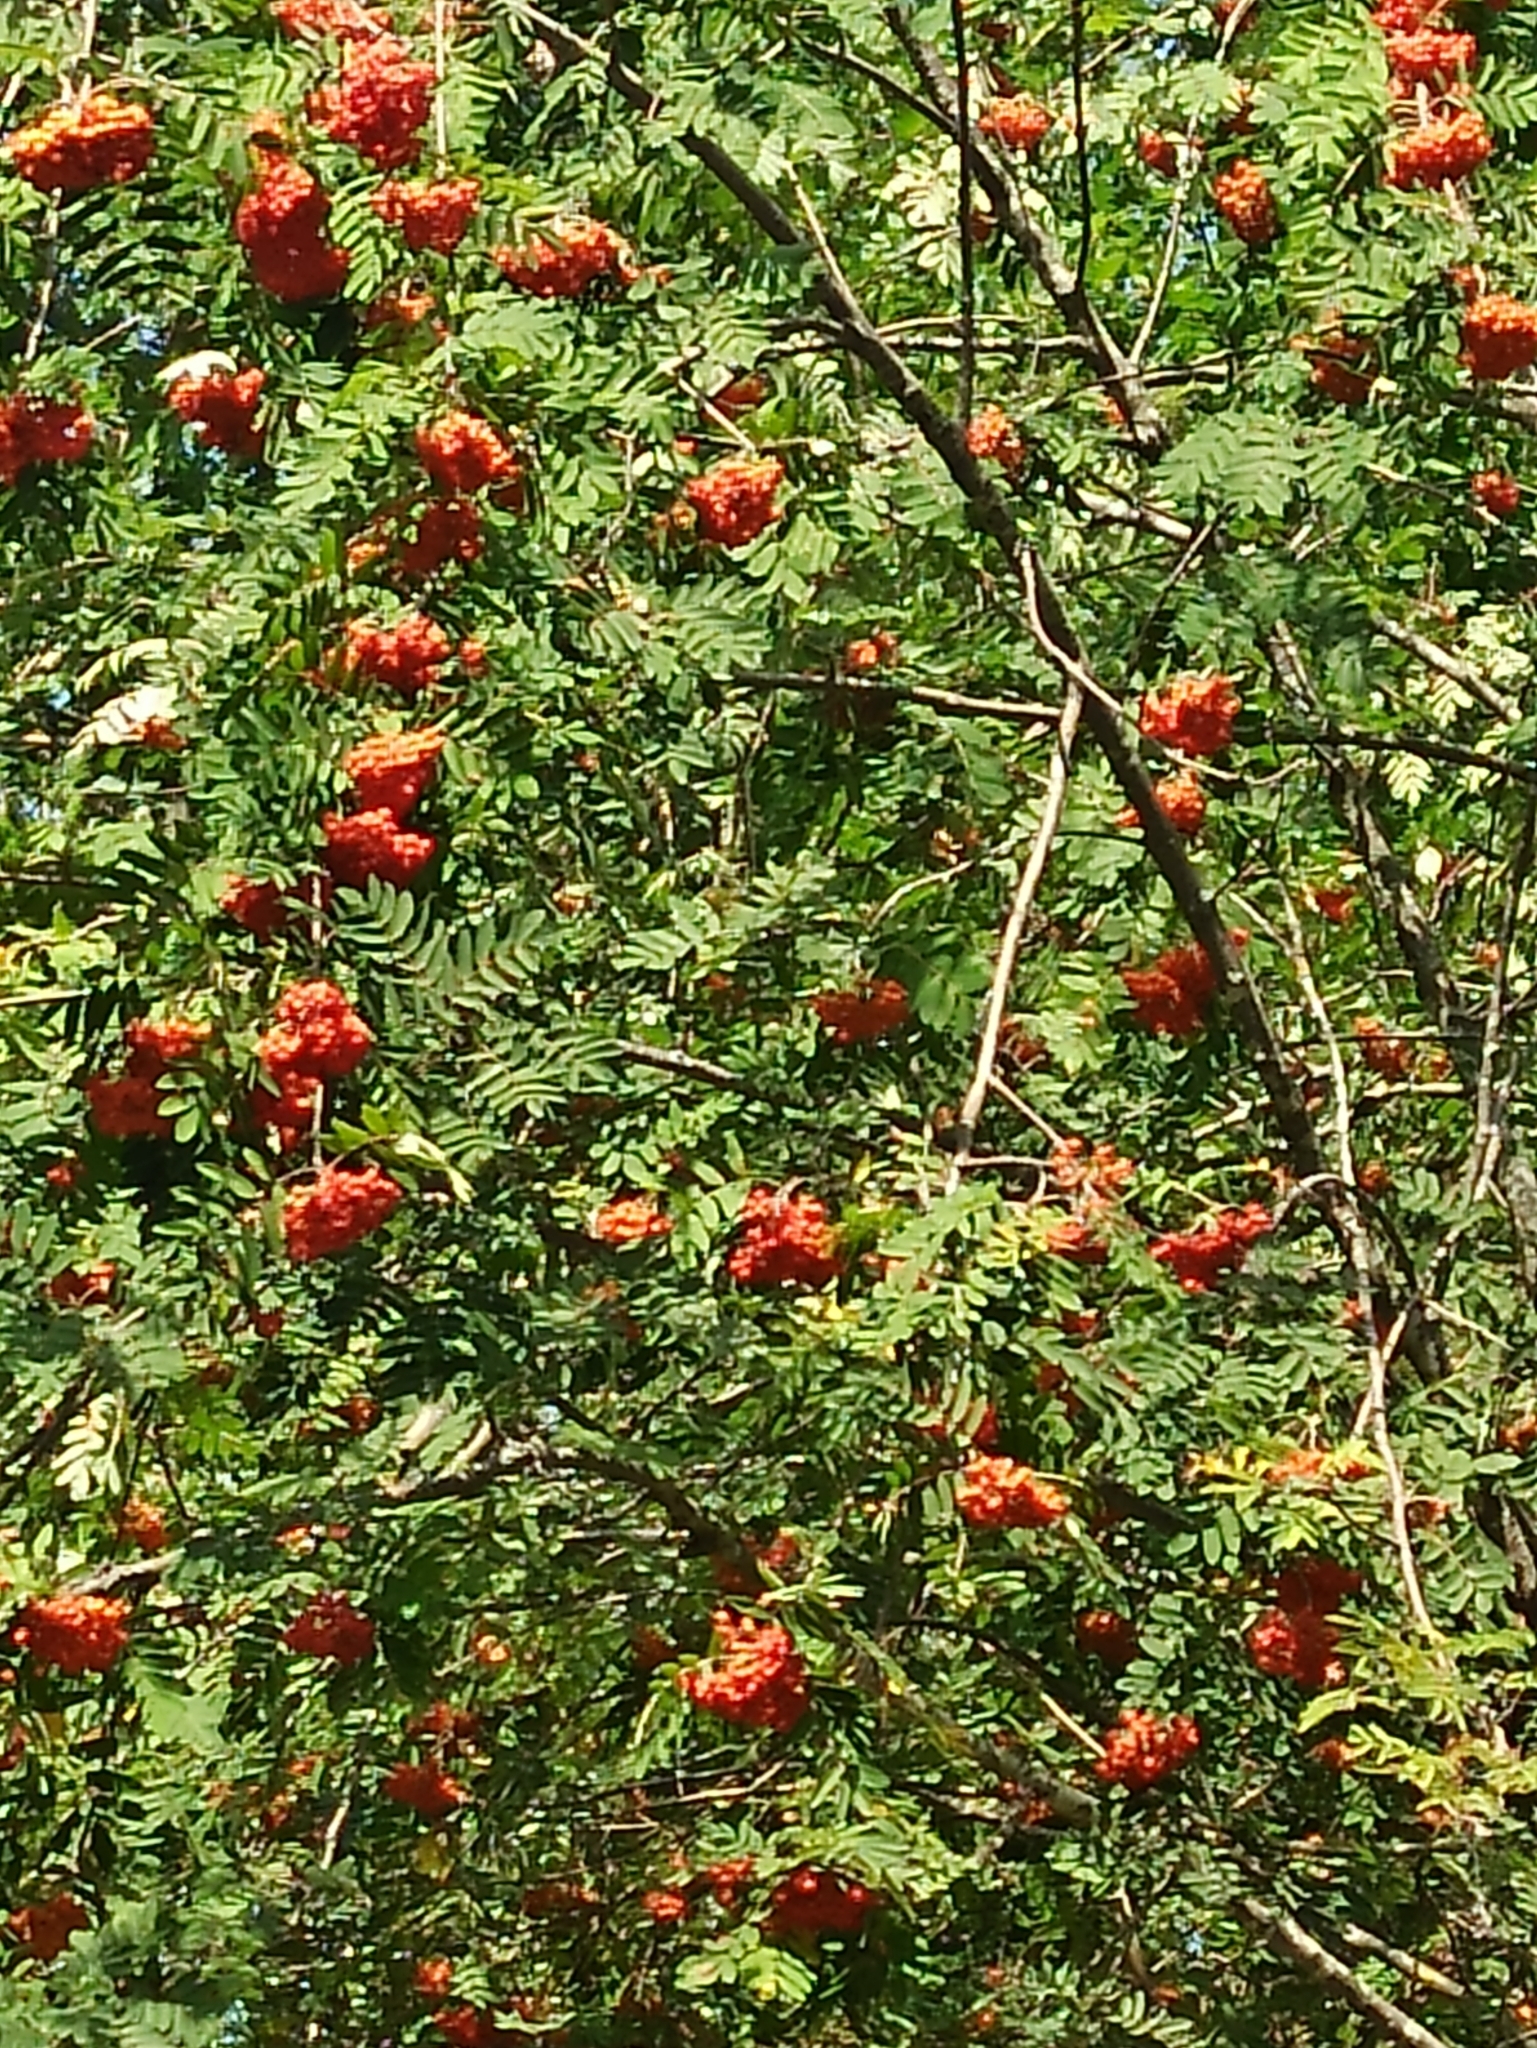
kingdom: Plantae
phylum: Tracheophyta
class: Magnoliopsida
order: Rosales
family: Rosaceae
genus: Sorbus
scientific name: Sorbus aucuparia
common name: Rowan
